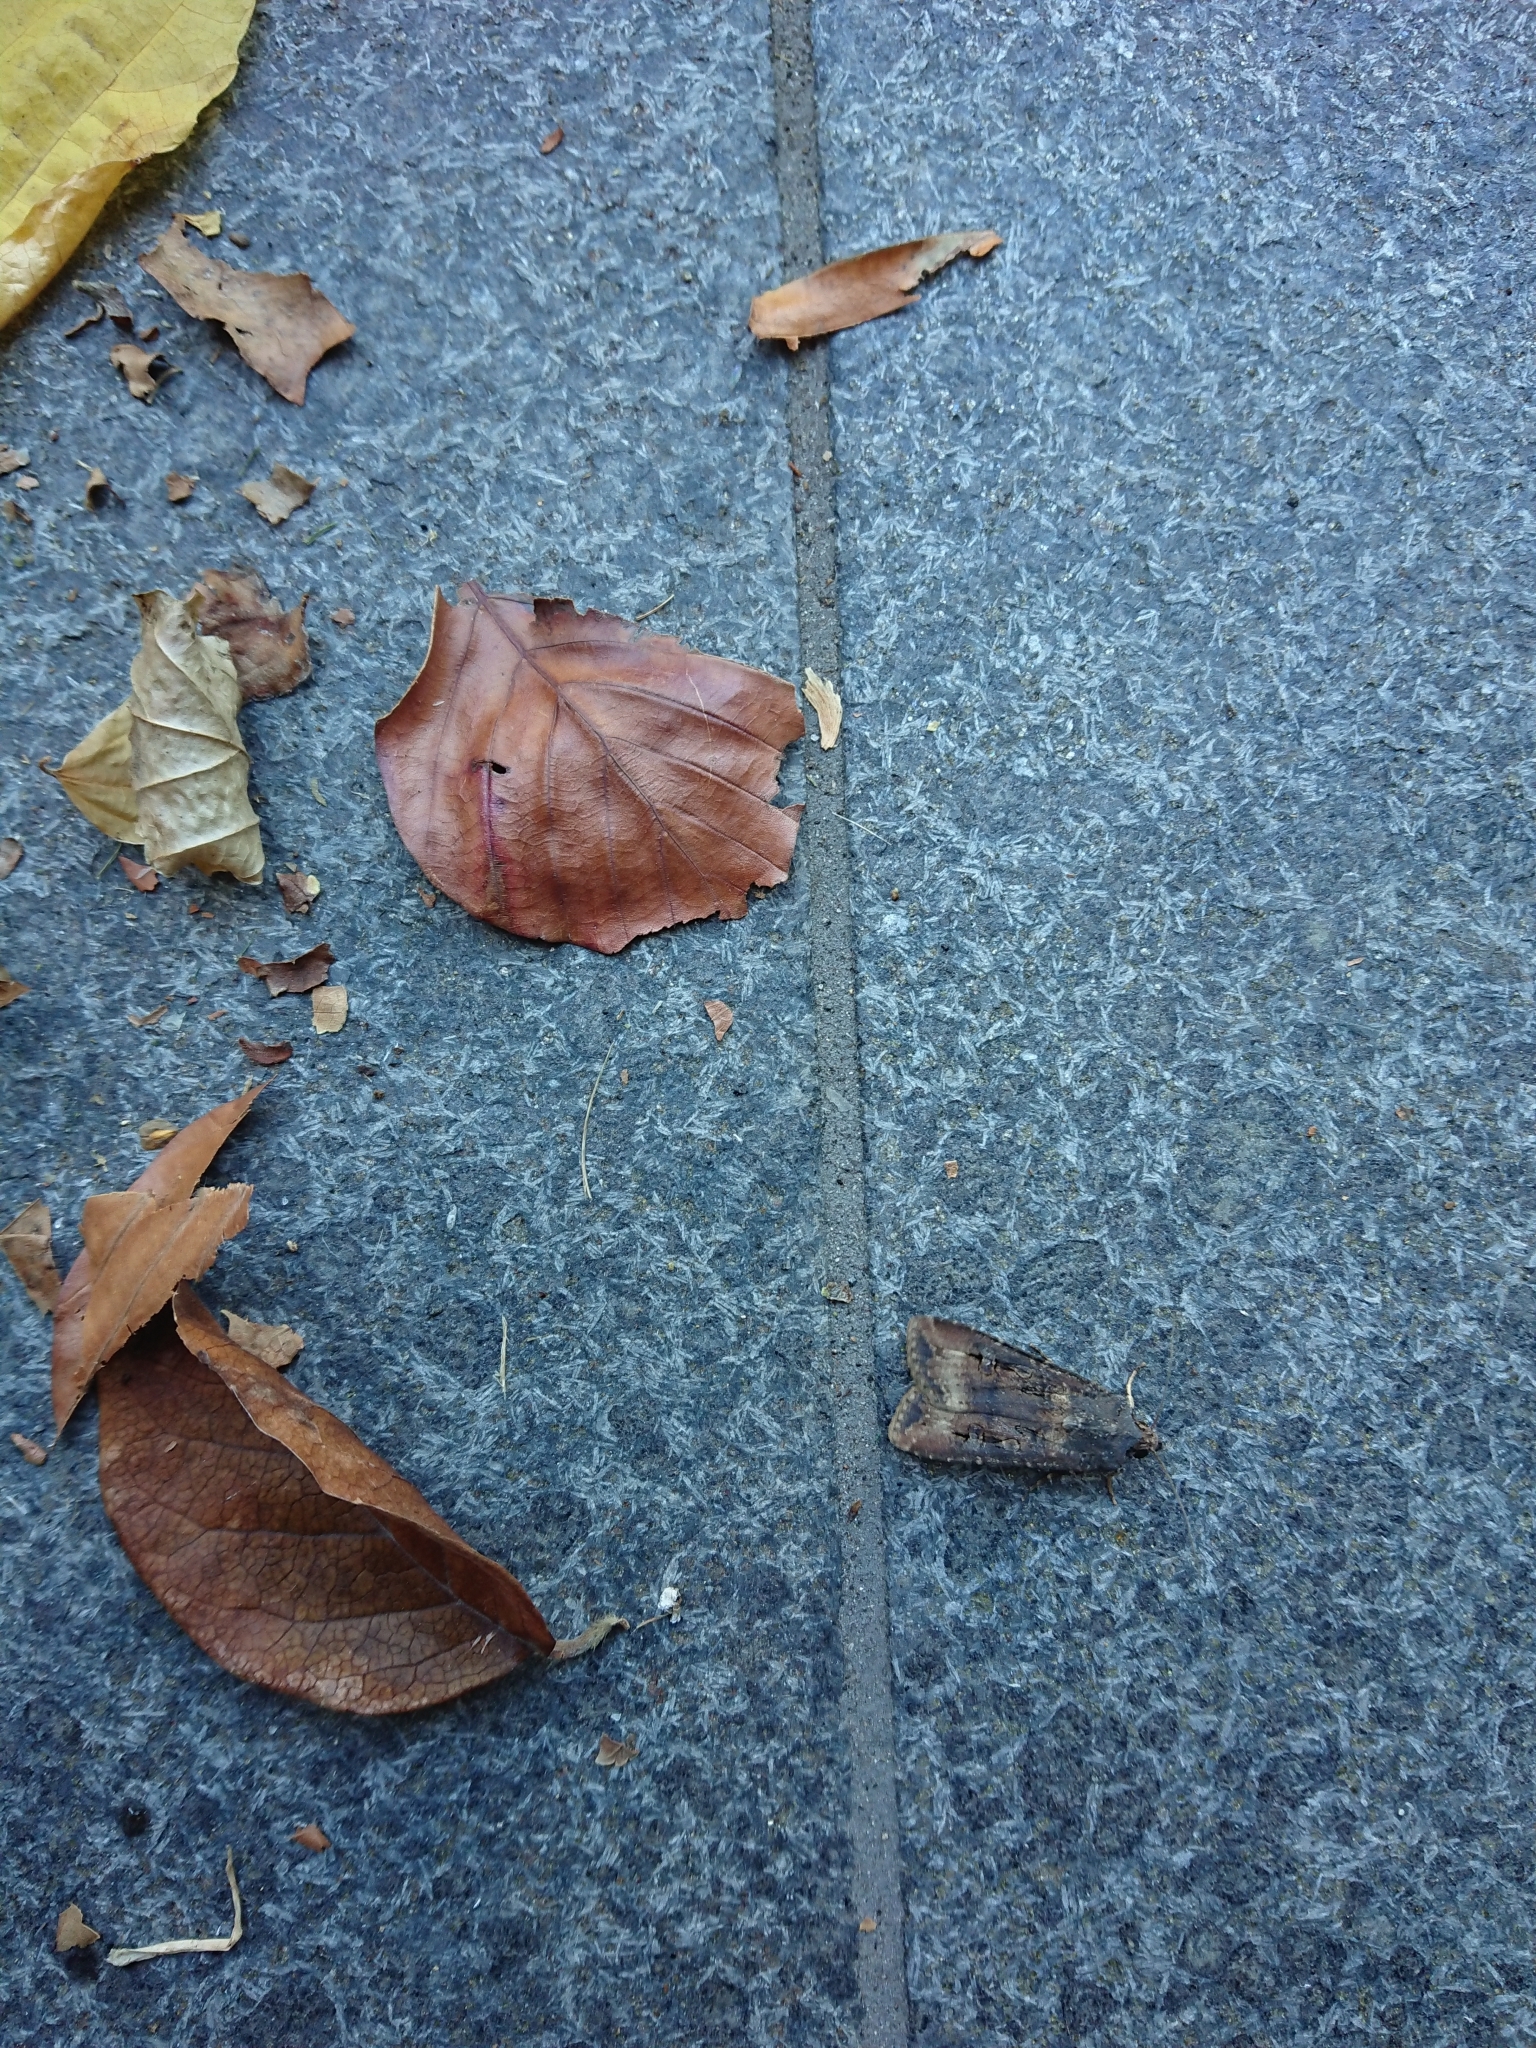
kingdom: Animalia
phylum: Arthropoda
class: Insecta
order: Lepidoptera
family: Noctuidae
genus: Agrotis
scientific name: Agrotis ipsilon
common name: Dark sword-grass
